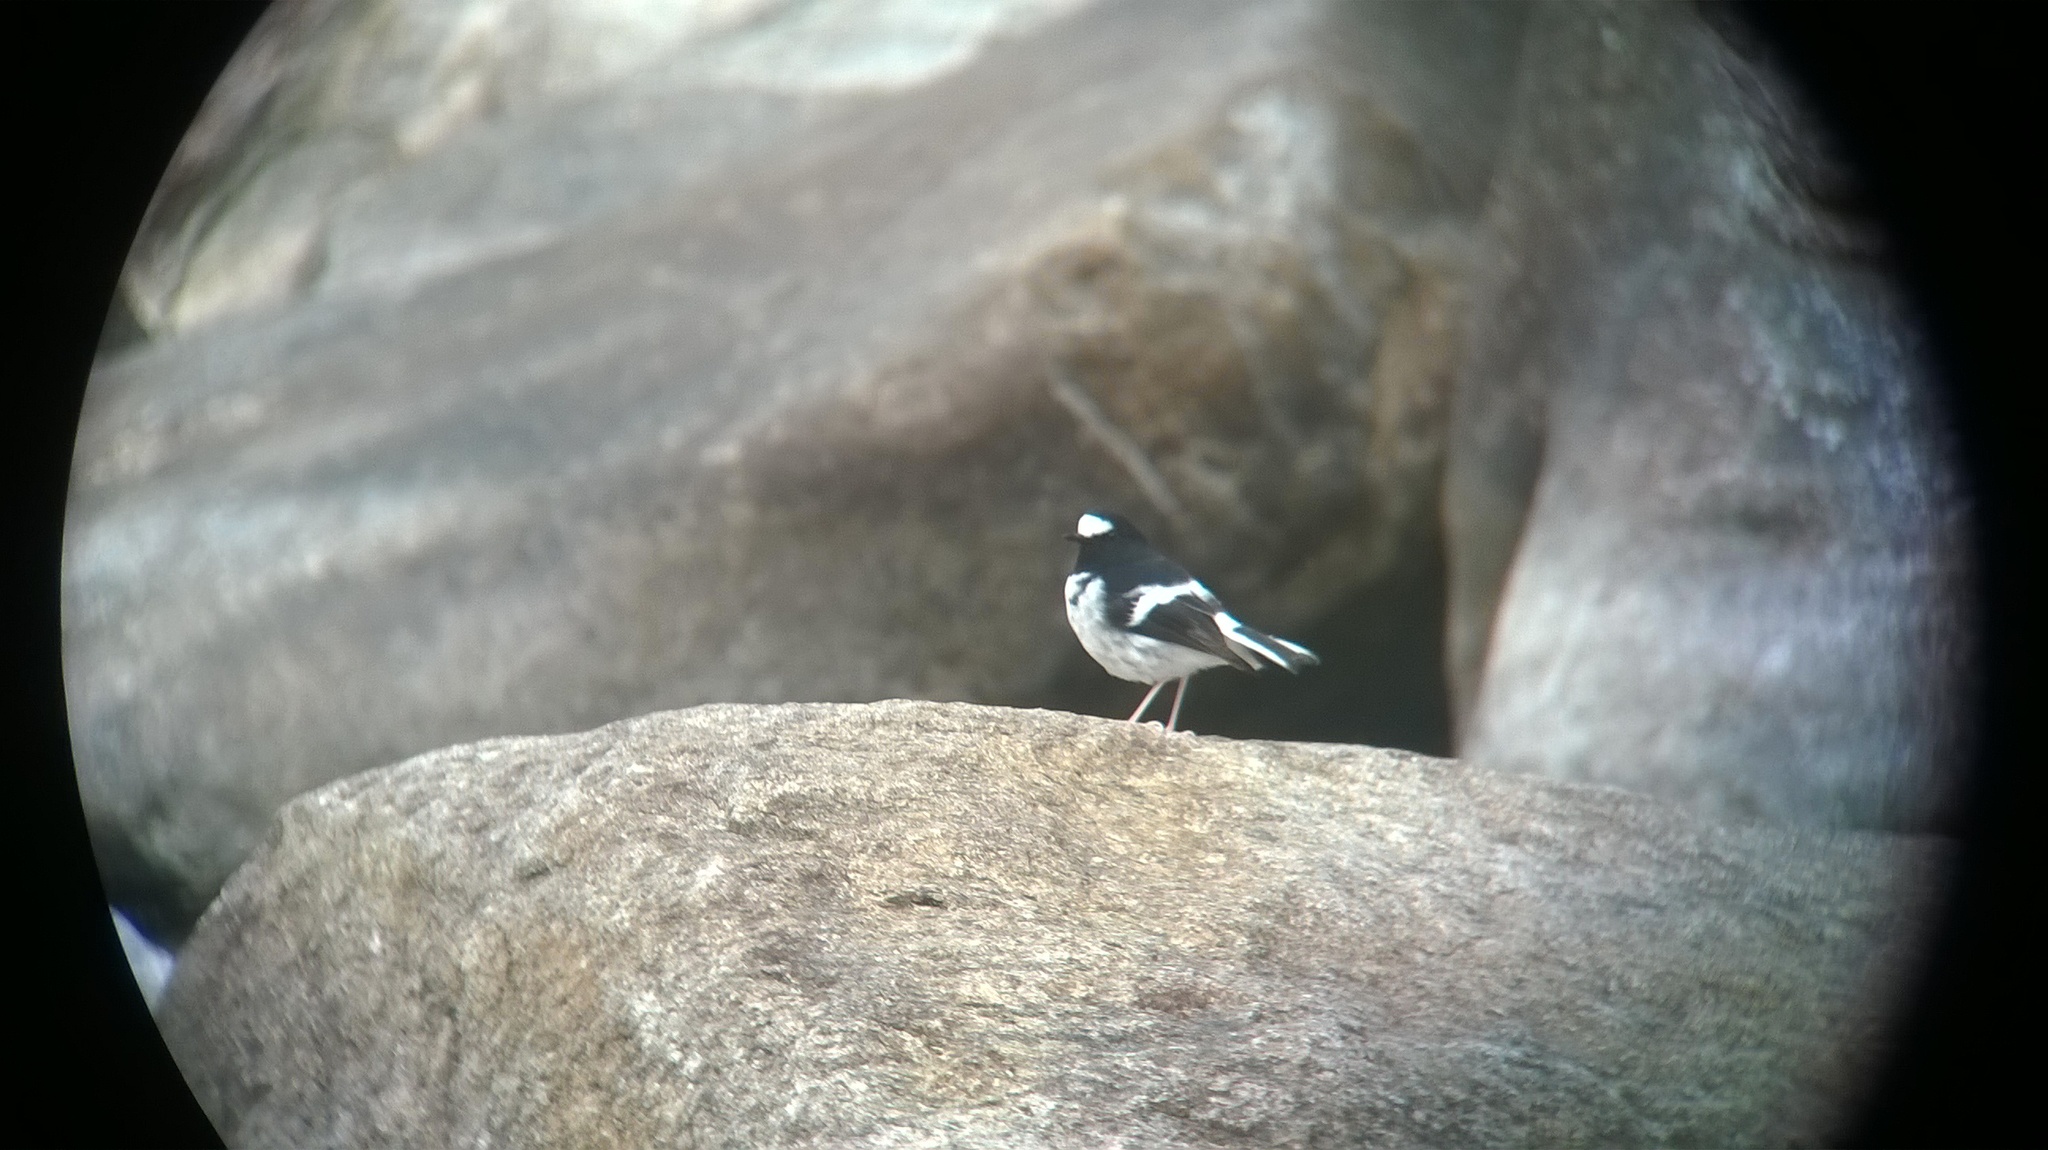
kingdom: Animalia
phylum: Chordata
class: Aves
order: Passeriformes
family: Muscicapidae
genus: Enicurus
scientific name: Enicurus scouleri
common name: Little forktail
